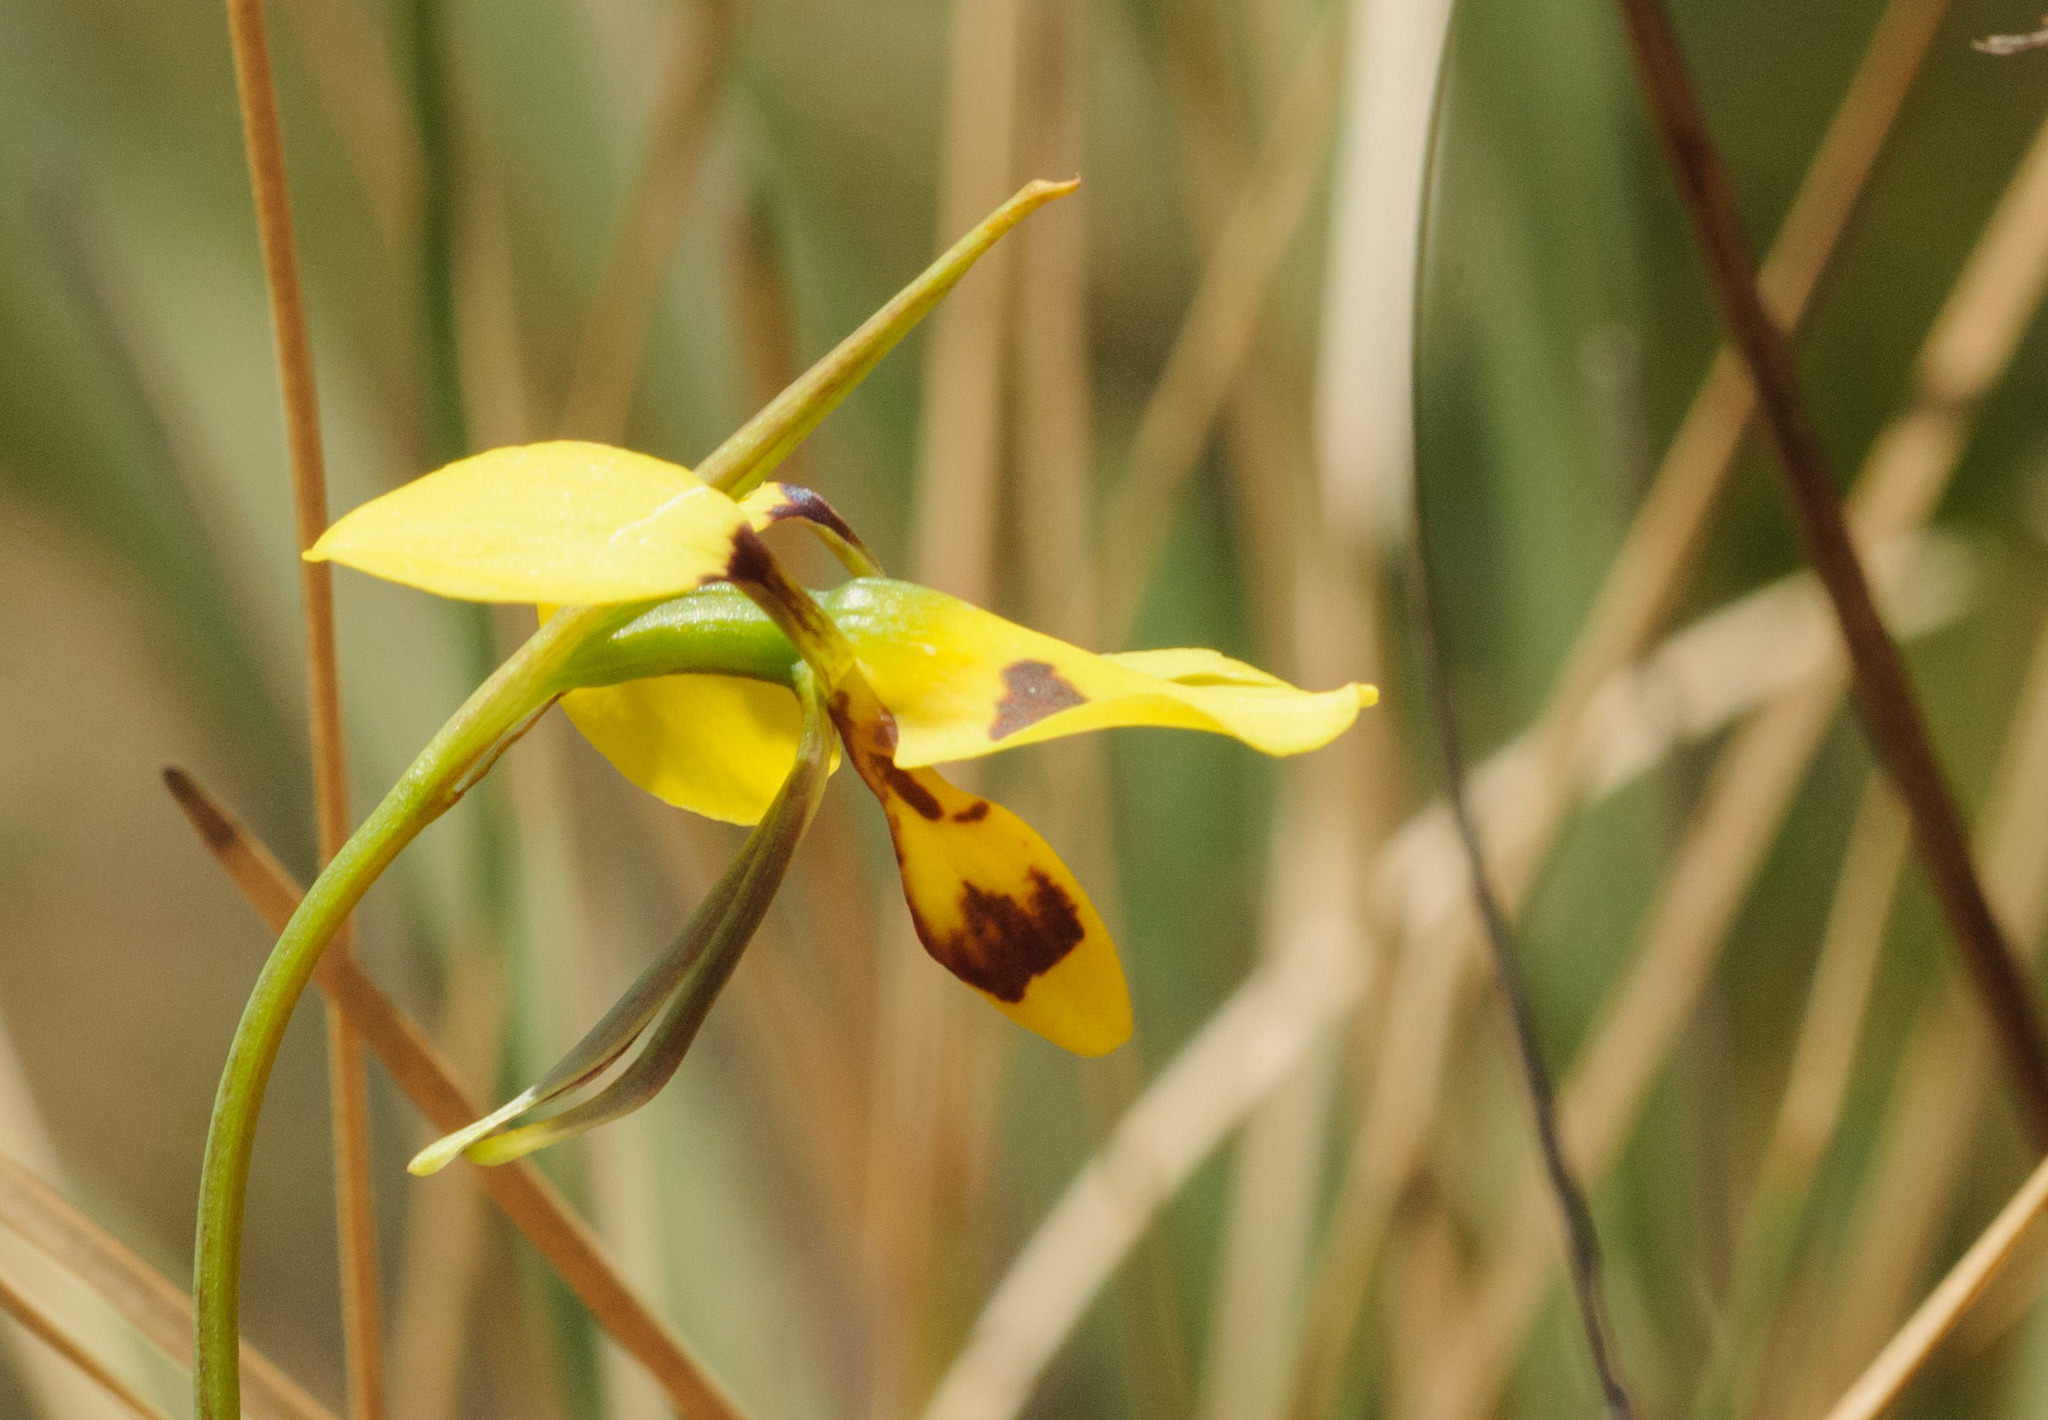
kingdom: Plantae
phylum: Tracheophyta
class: Liliopsida
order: Asparagales
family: Orchidaceae
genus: Diuris
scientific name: Diuris sulphurea
